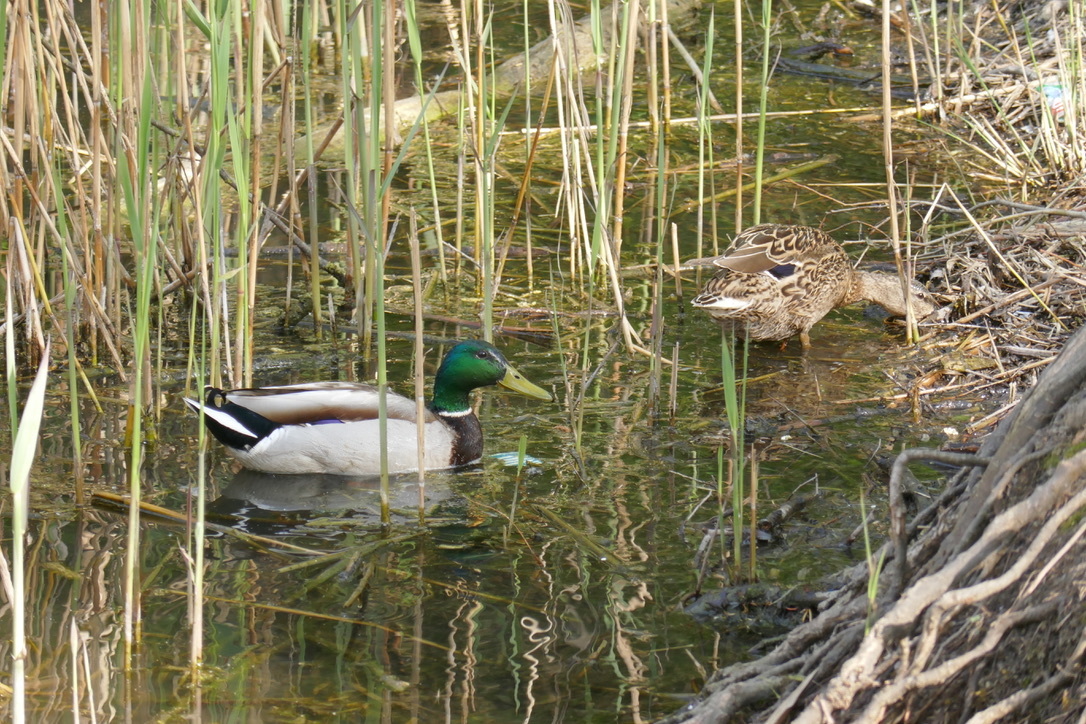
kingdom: Animalia
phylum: Chordata
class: Aves
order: Anseriformes
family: Anatidae
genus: Anas
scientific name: Anas platyrhynchos
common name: Mallard
